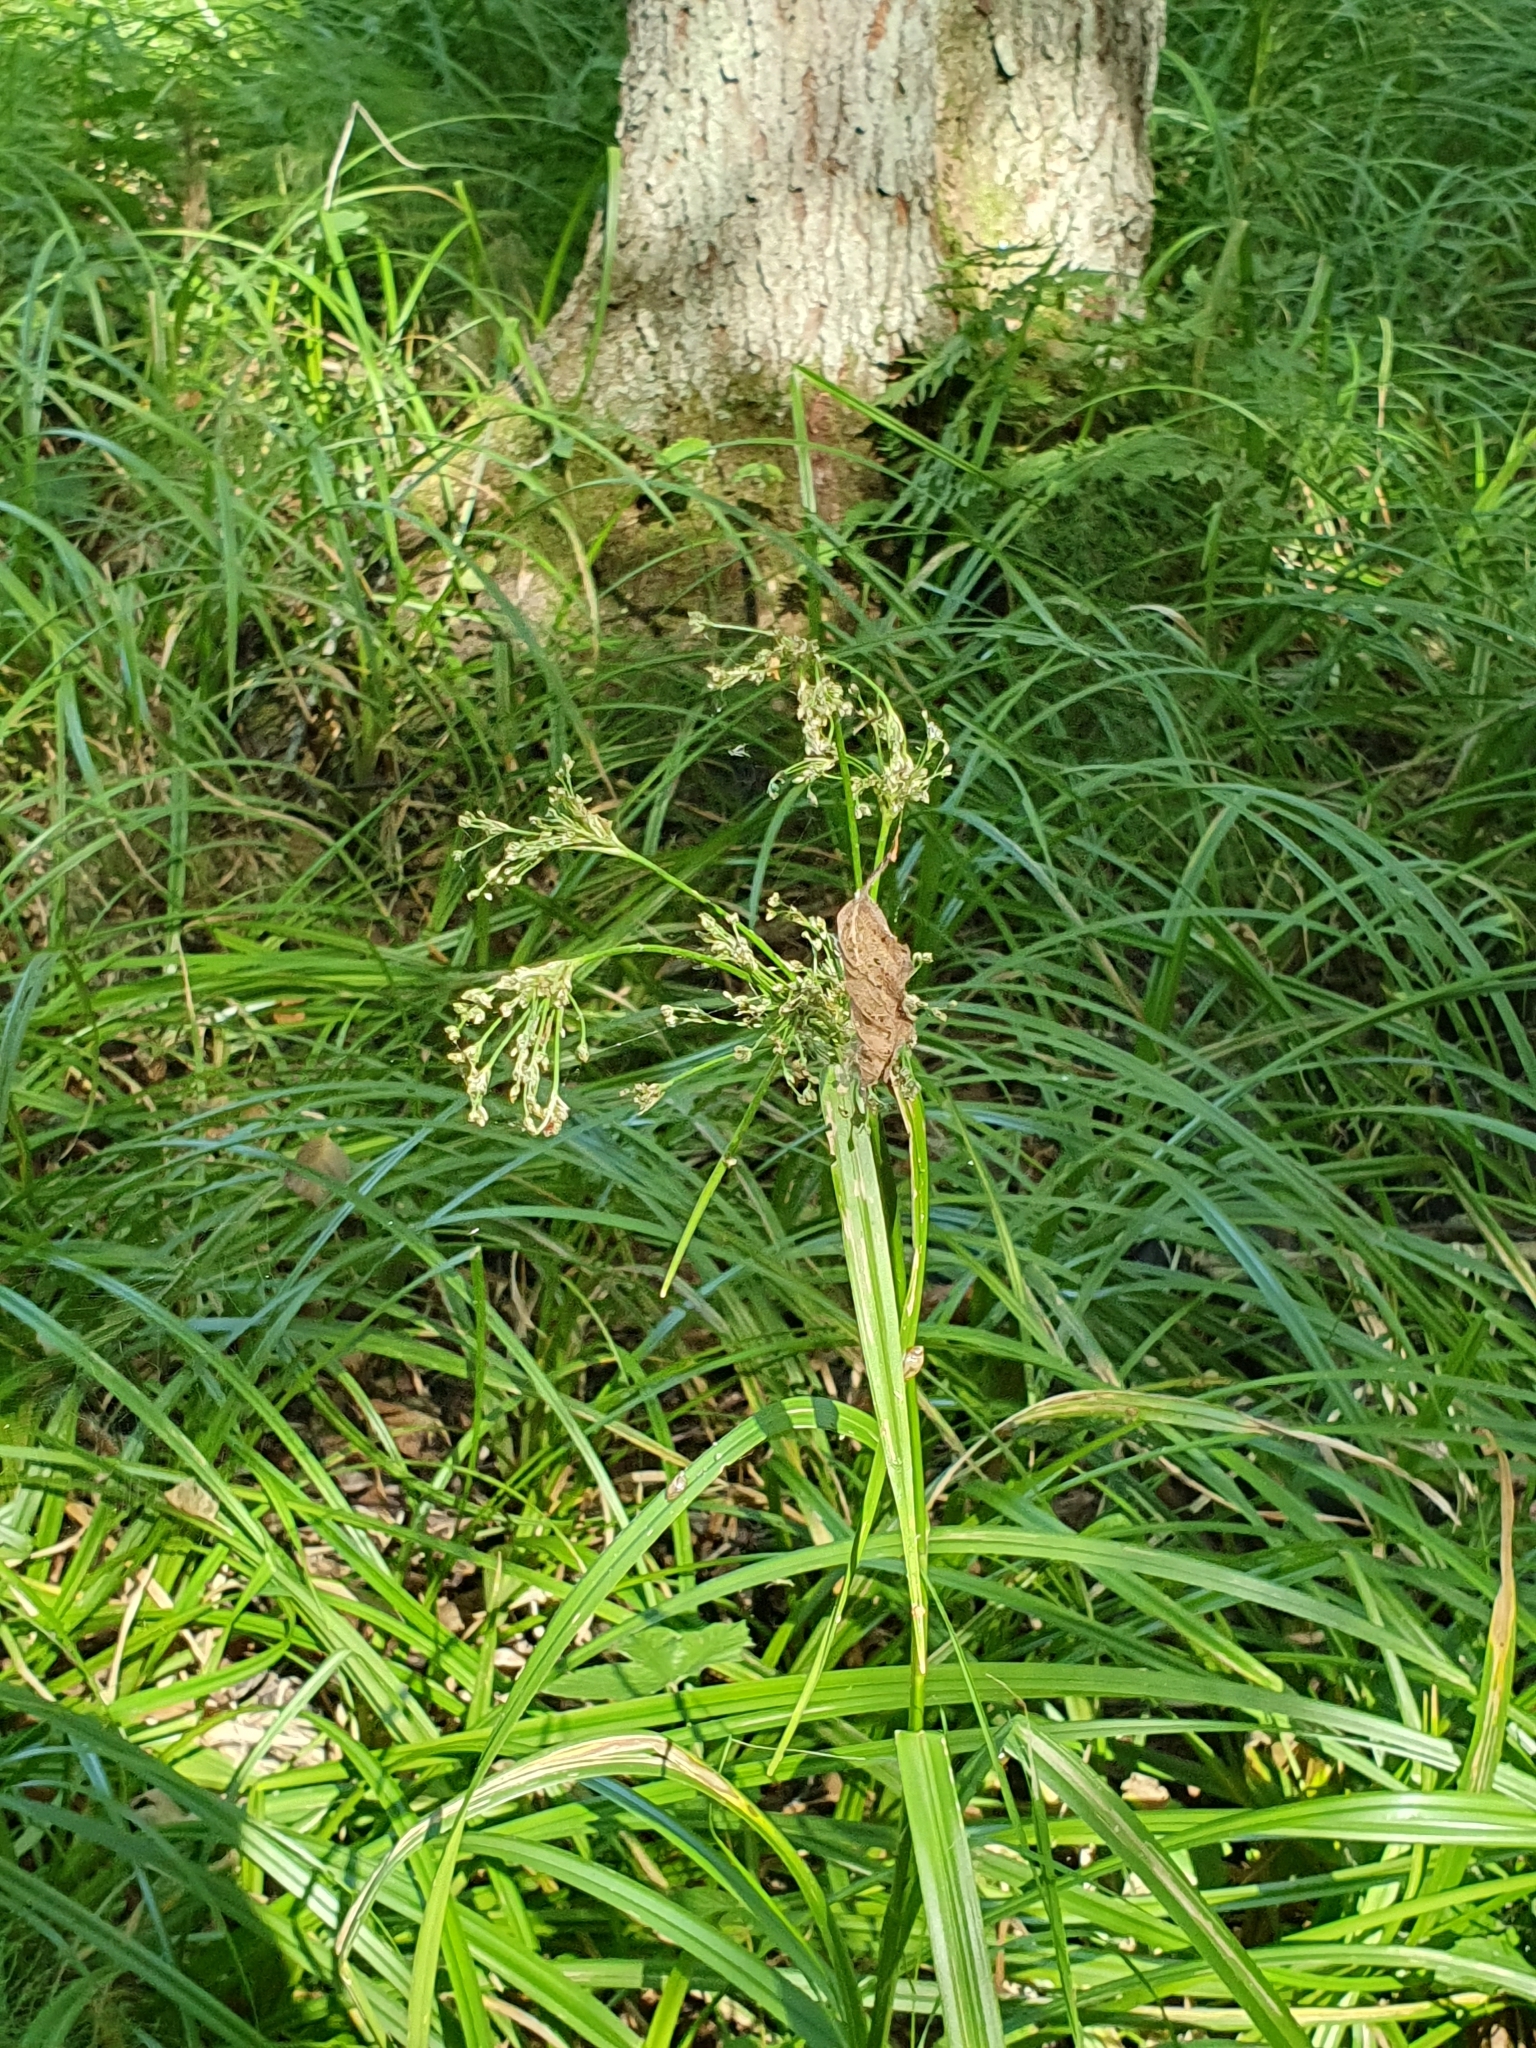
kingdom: Plantae
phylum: Tracheophyta
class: Liliopsida
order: Poales
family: Cyperaceae
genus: Scirpus
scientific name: Scirpus sylvaticus
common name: Wood club-rush
